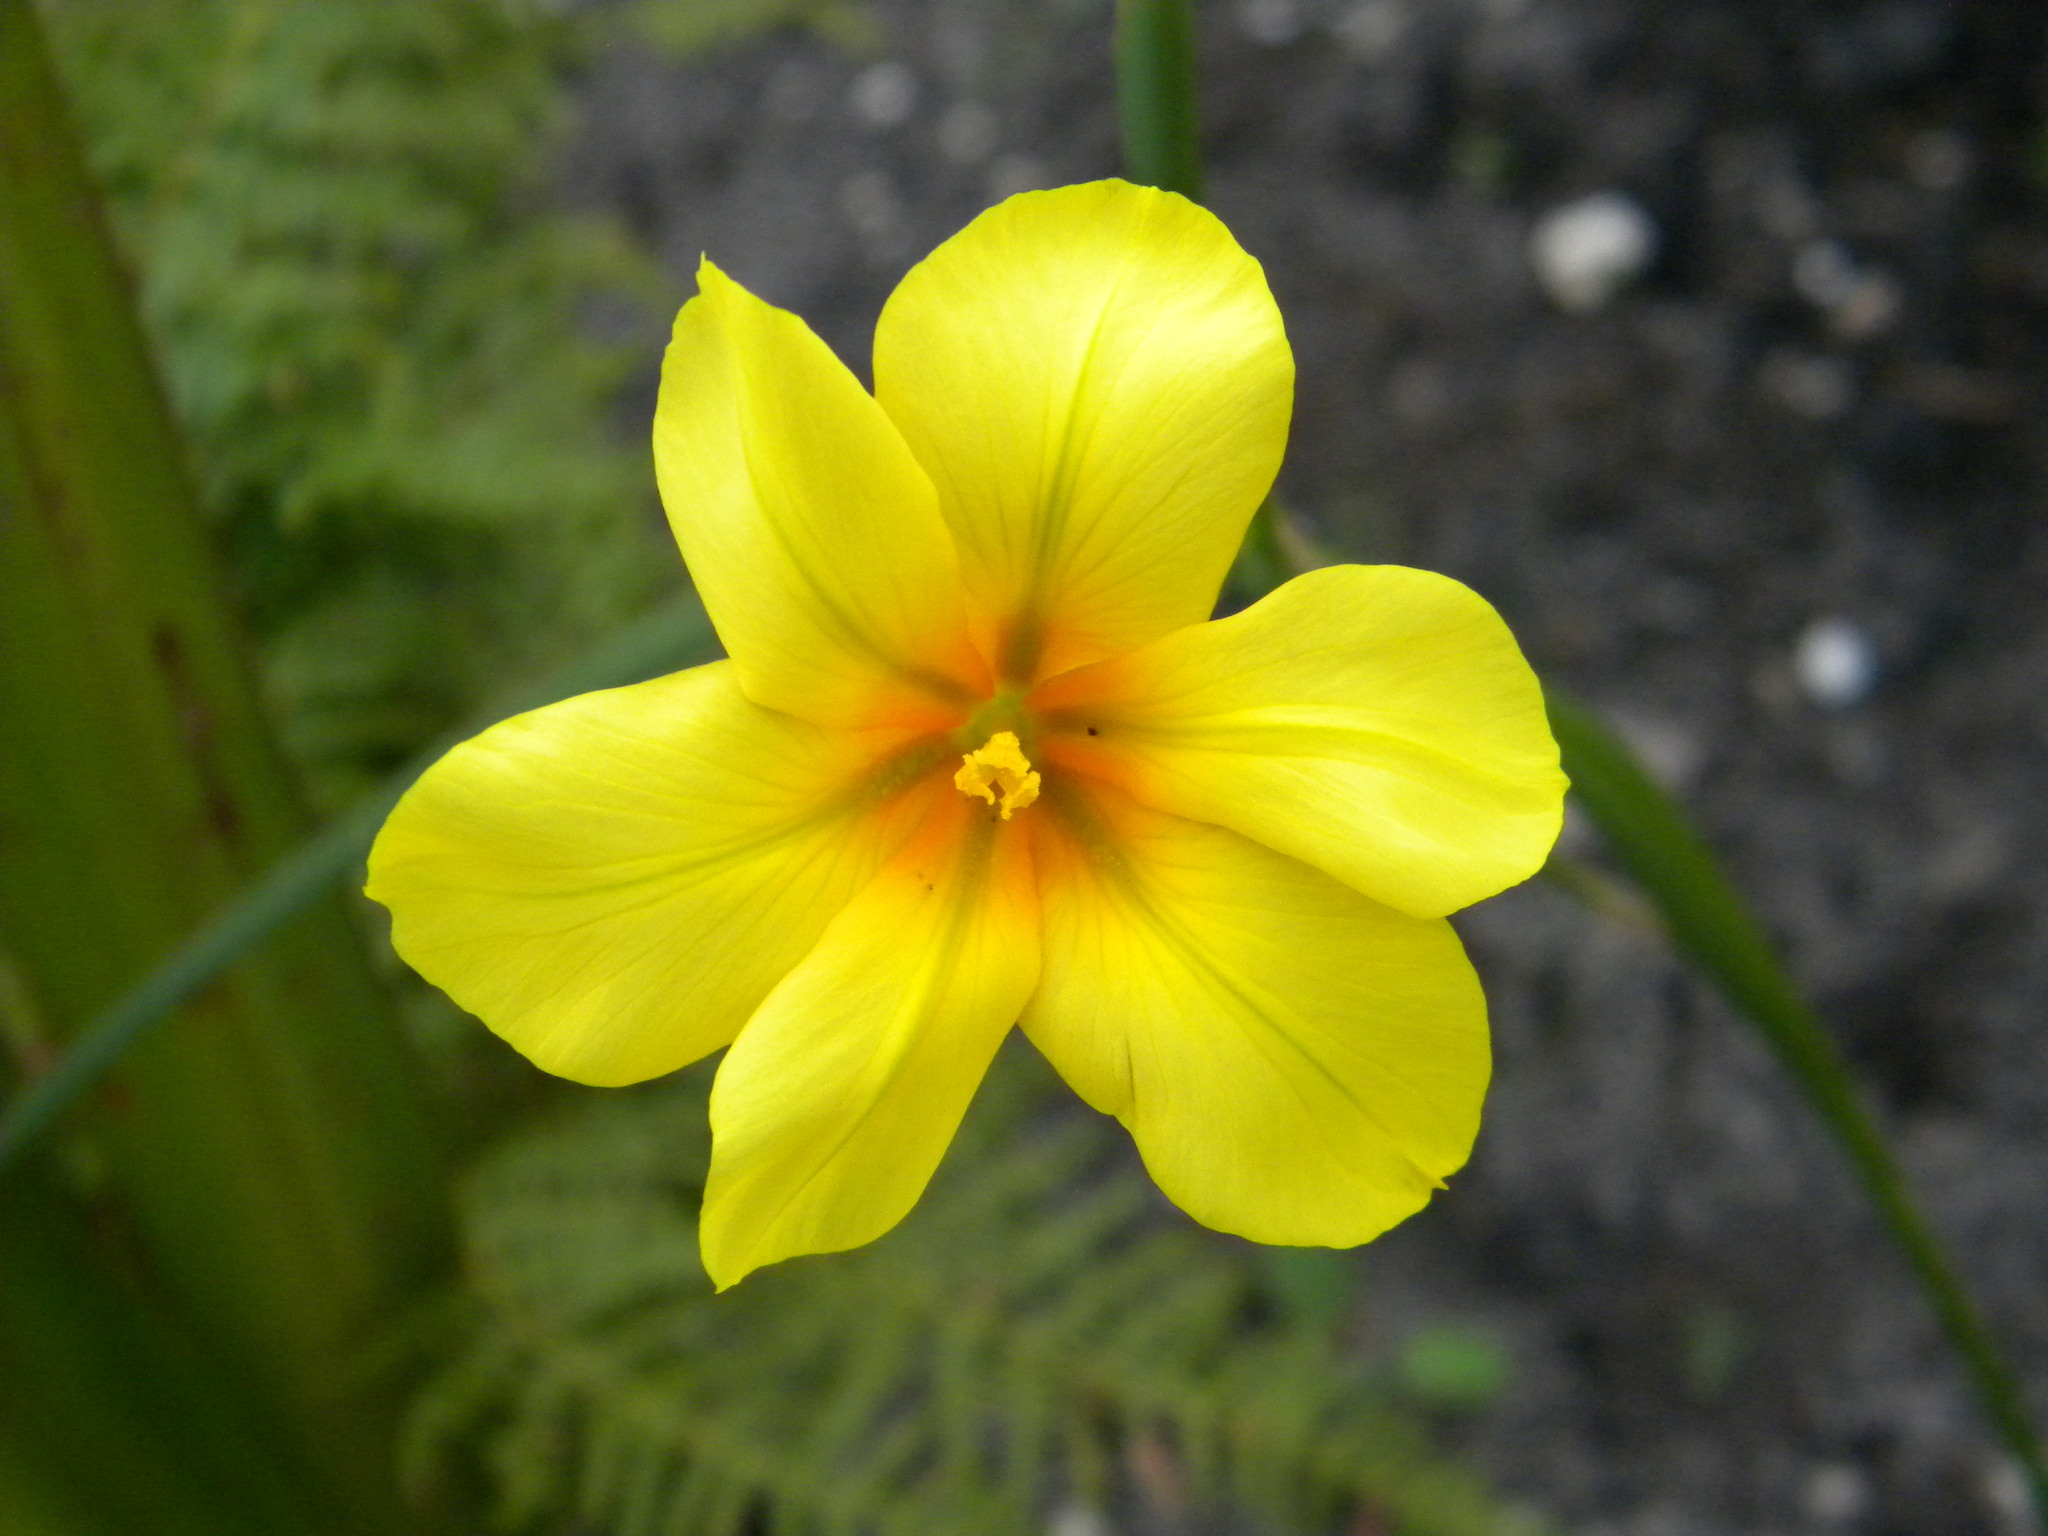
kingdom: Plantae
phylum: Tracheophyta
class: Liliopsida
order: Asparagales
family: Iridaceae
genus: Moraea
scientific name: Moraea ochroleuca
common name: Red tulp
